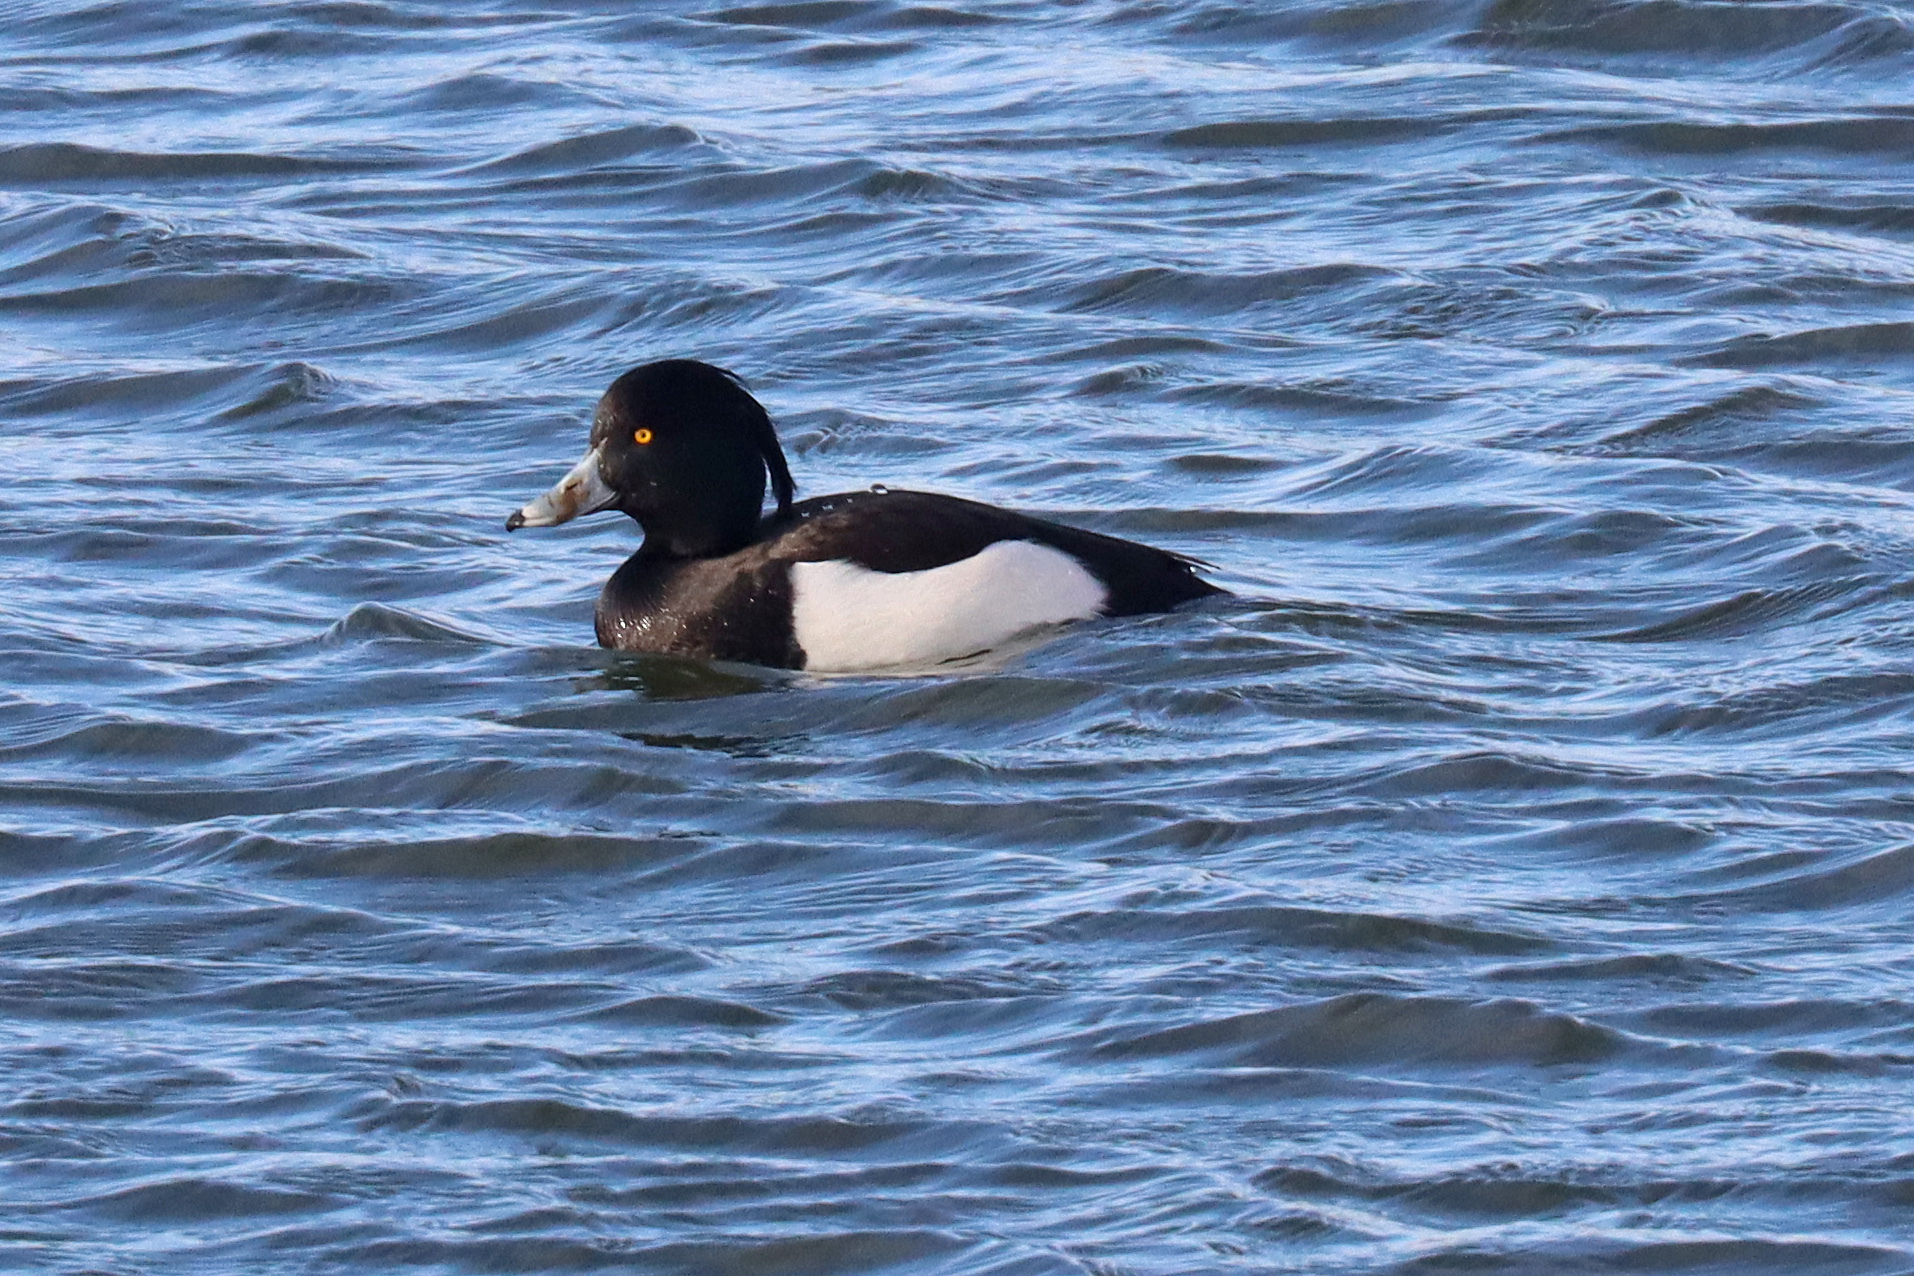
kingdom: Animalia
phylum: Chordata
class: Aves
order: Anseriformes
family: Anatidae
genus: Aythya
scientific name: Aythya fuligula
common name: Tufted duck
